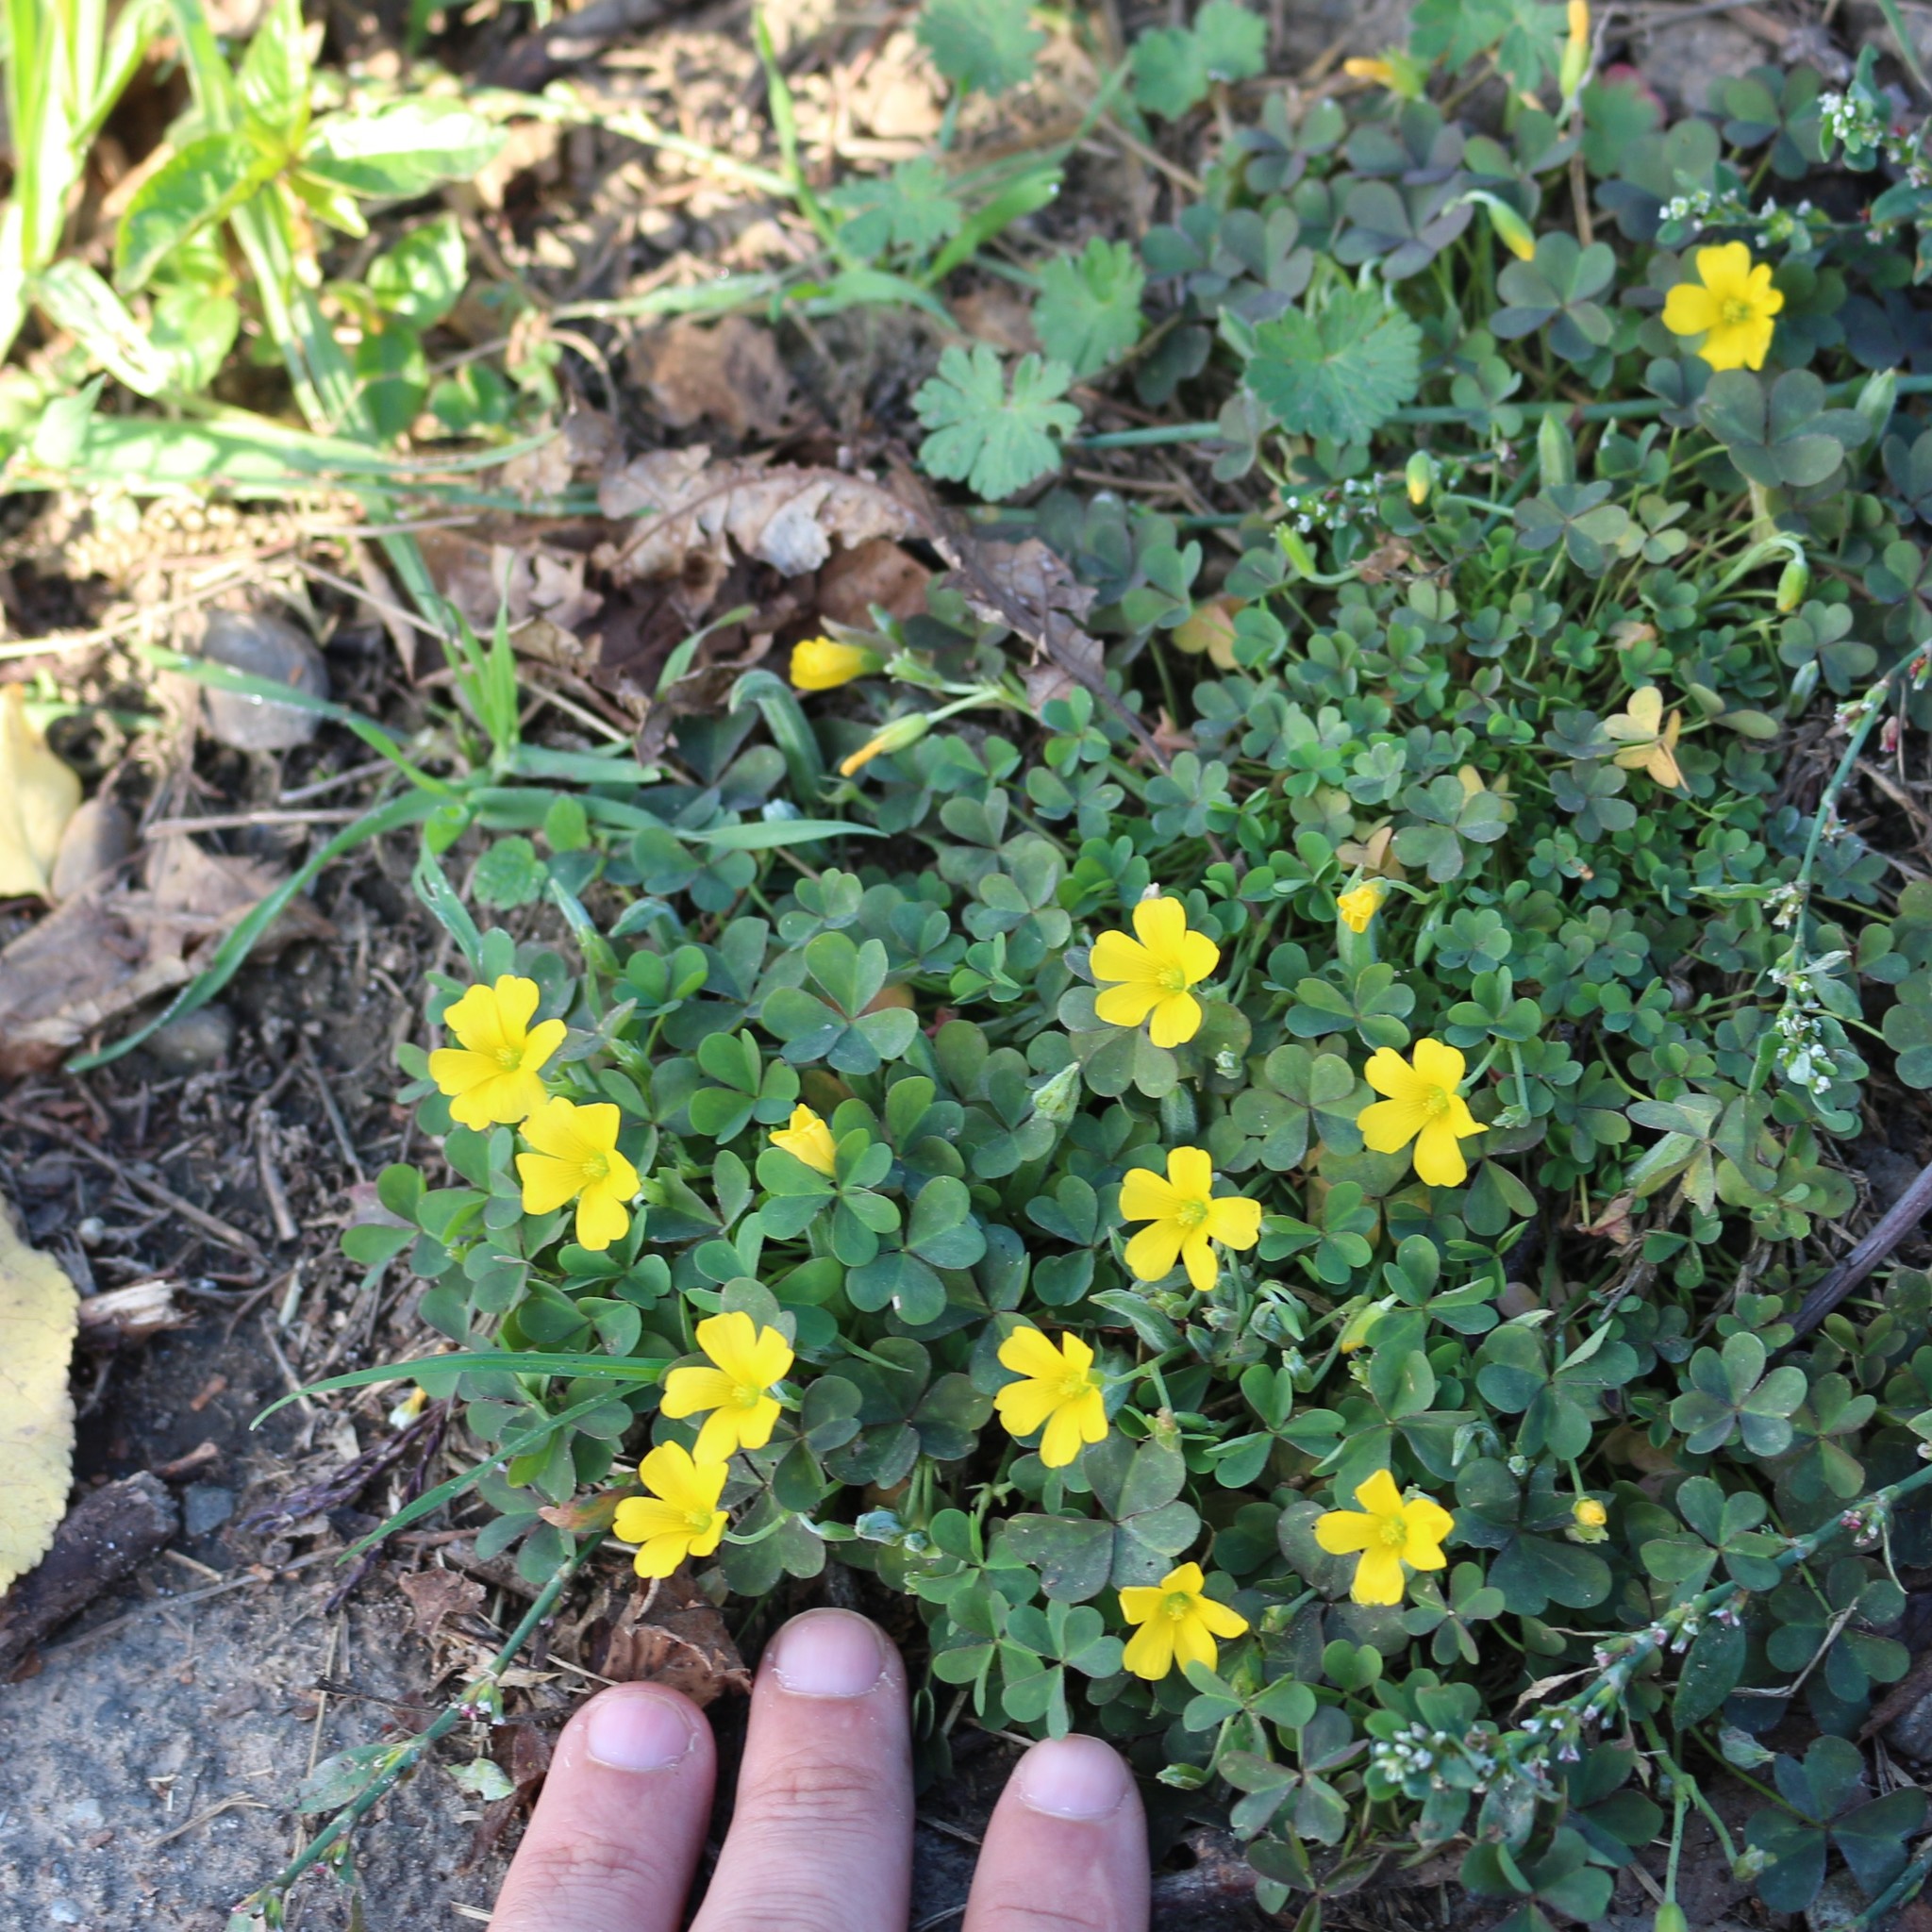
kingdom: Plantae
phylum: Tracheophyta
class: Magnoliopsida
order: Oxalidales
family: Oxalidaceae
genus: Oxalis
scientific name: Oxalis corniculata
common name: Procumbent yellow-sorrel
